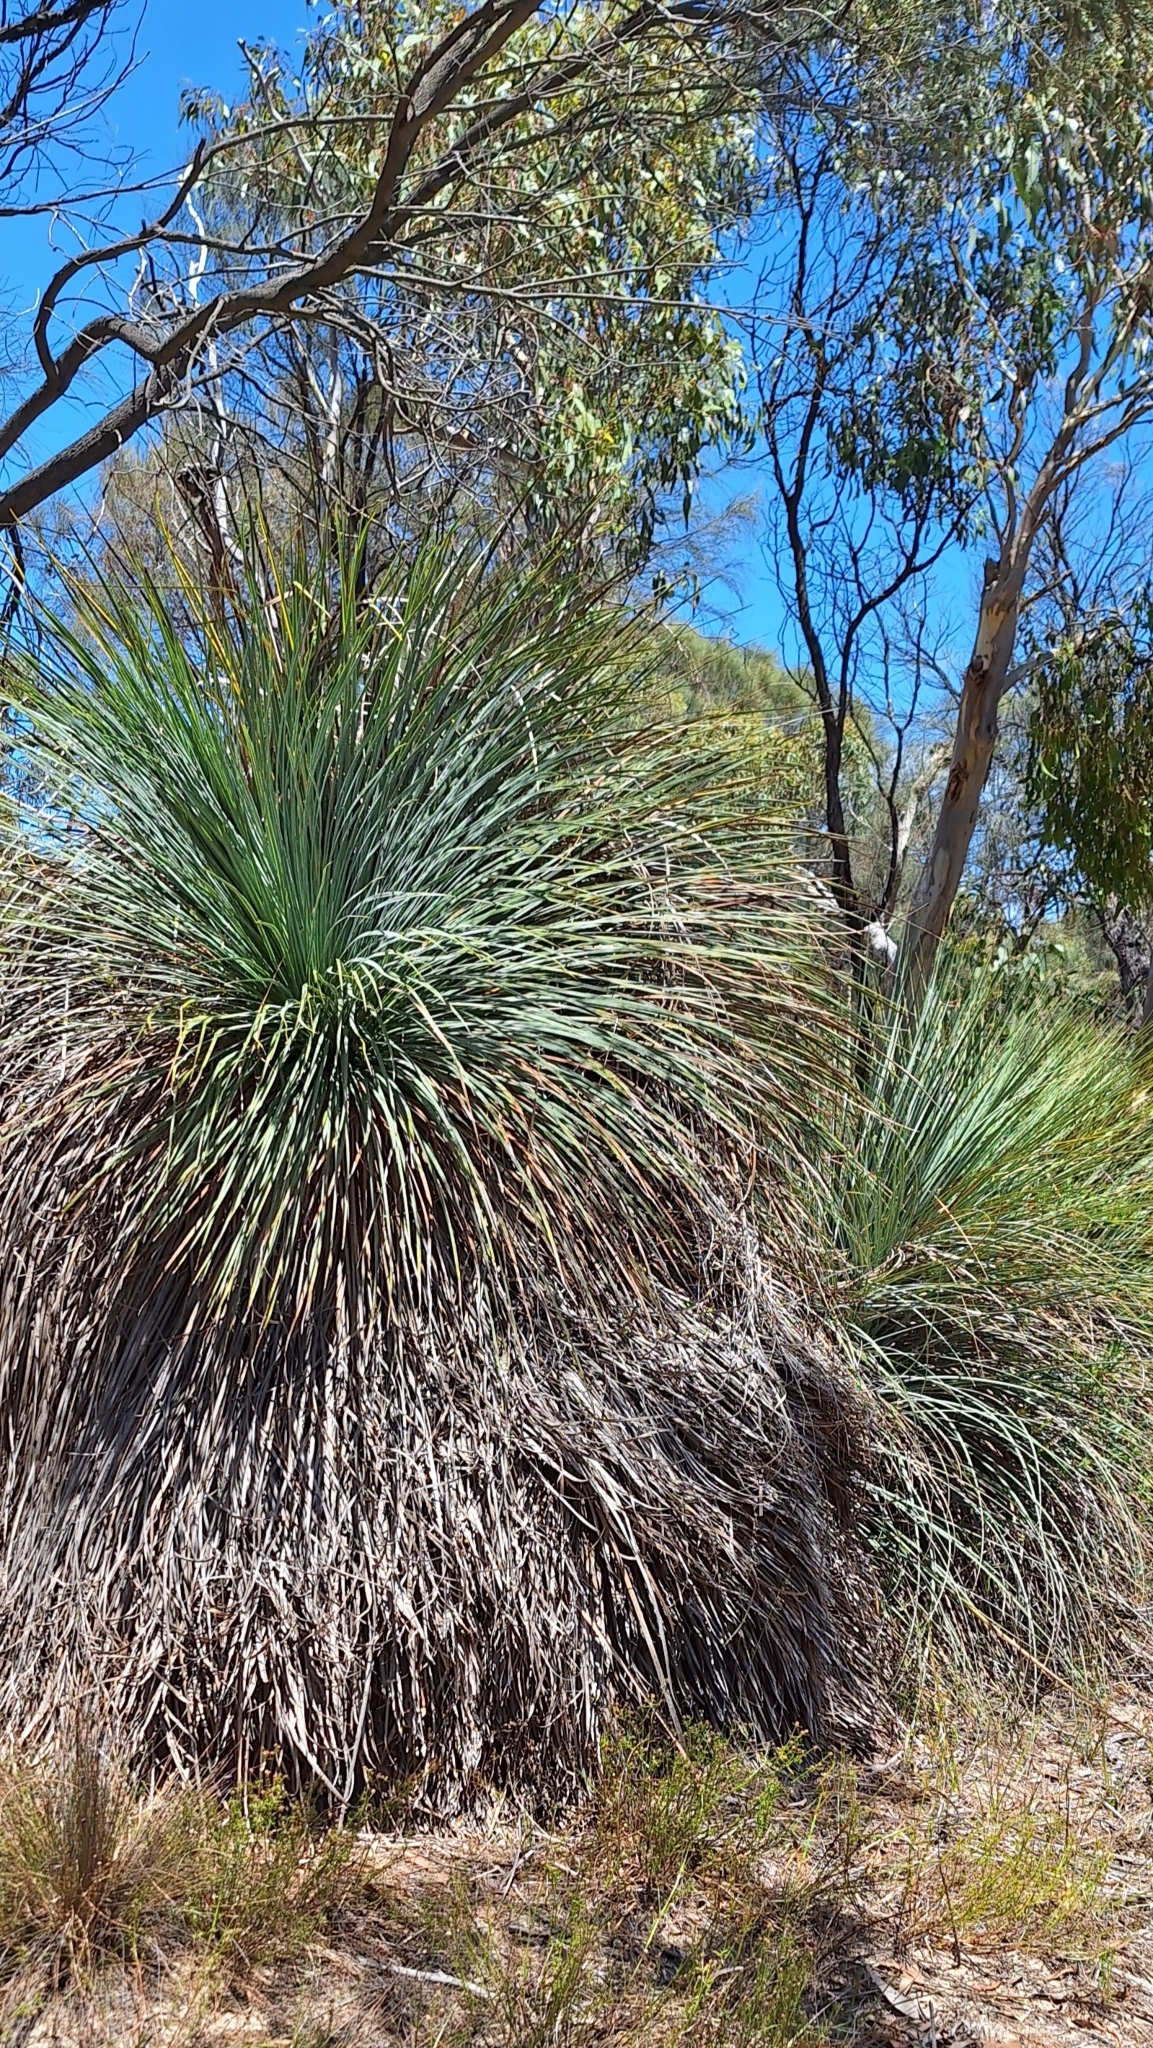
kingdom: Plantae
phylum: Tracheophyta
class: Liliopsida
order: Asparagales
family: Asphodelaceae
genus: Xanthorrhoea
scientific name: Xanthorrhoea semiplana
